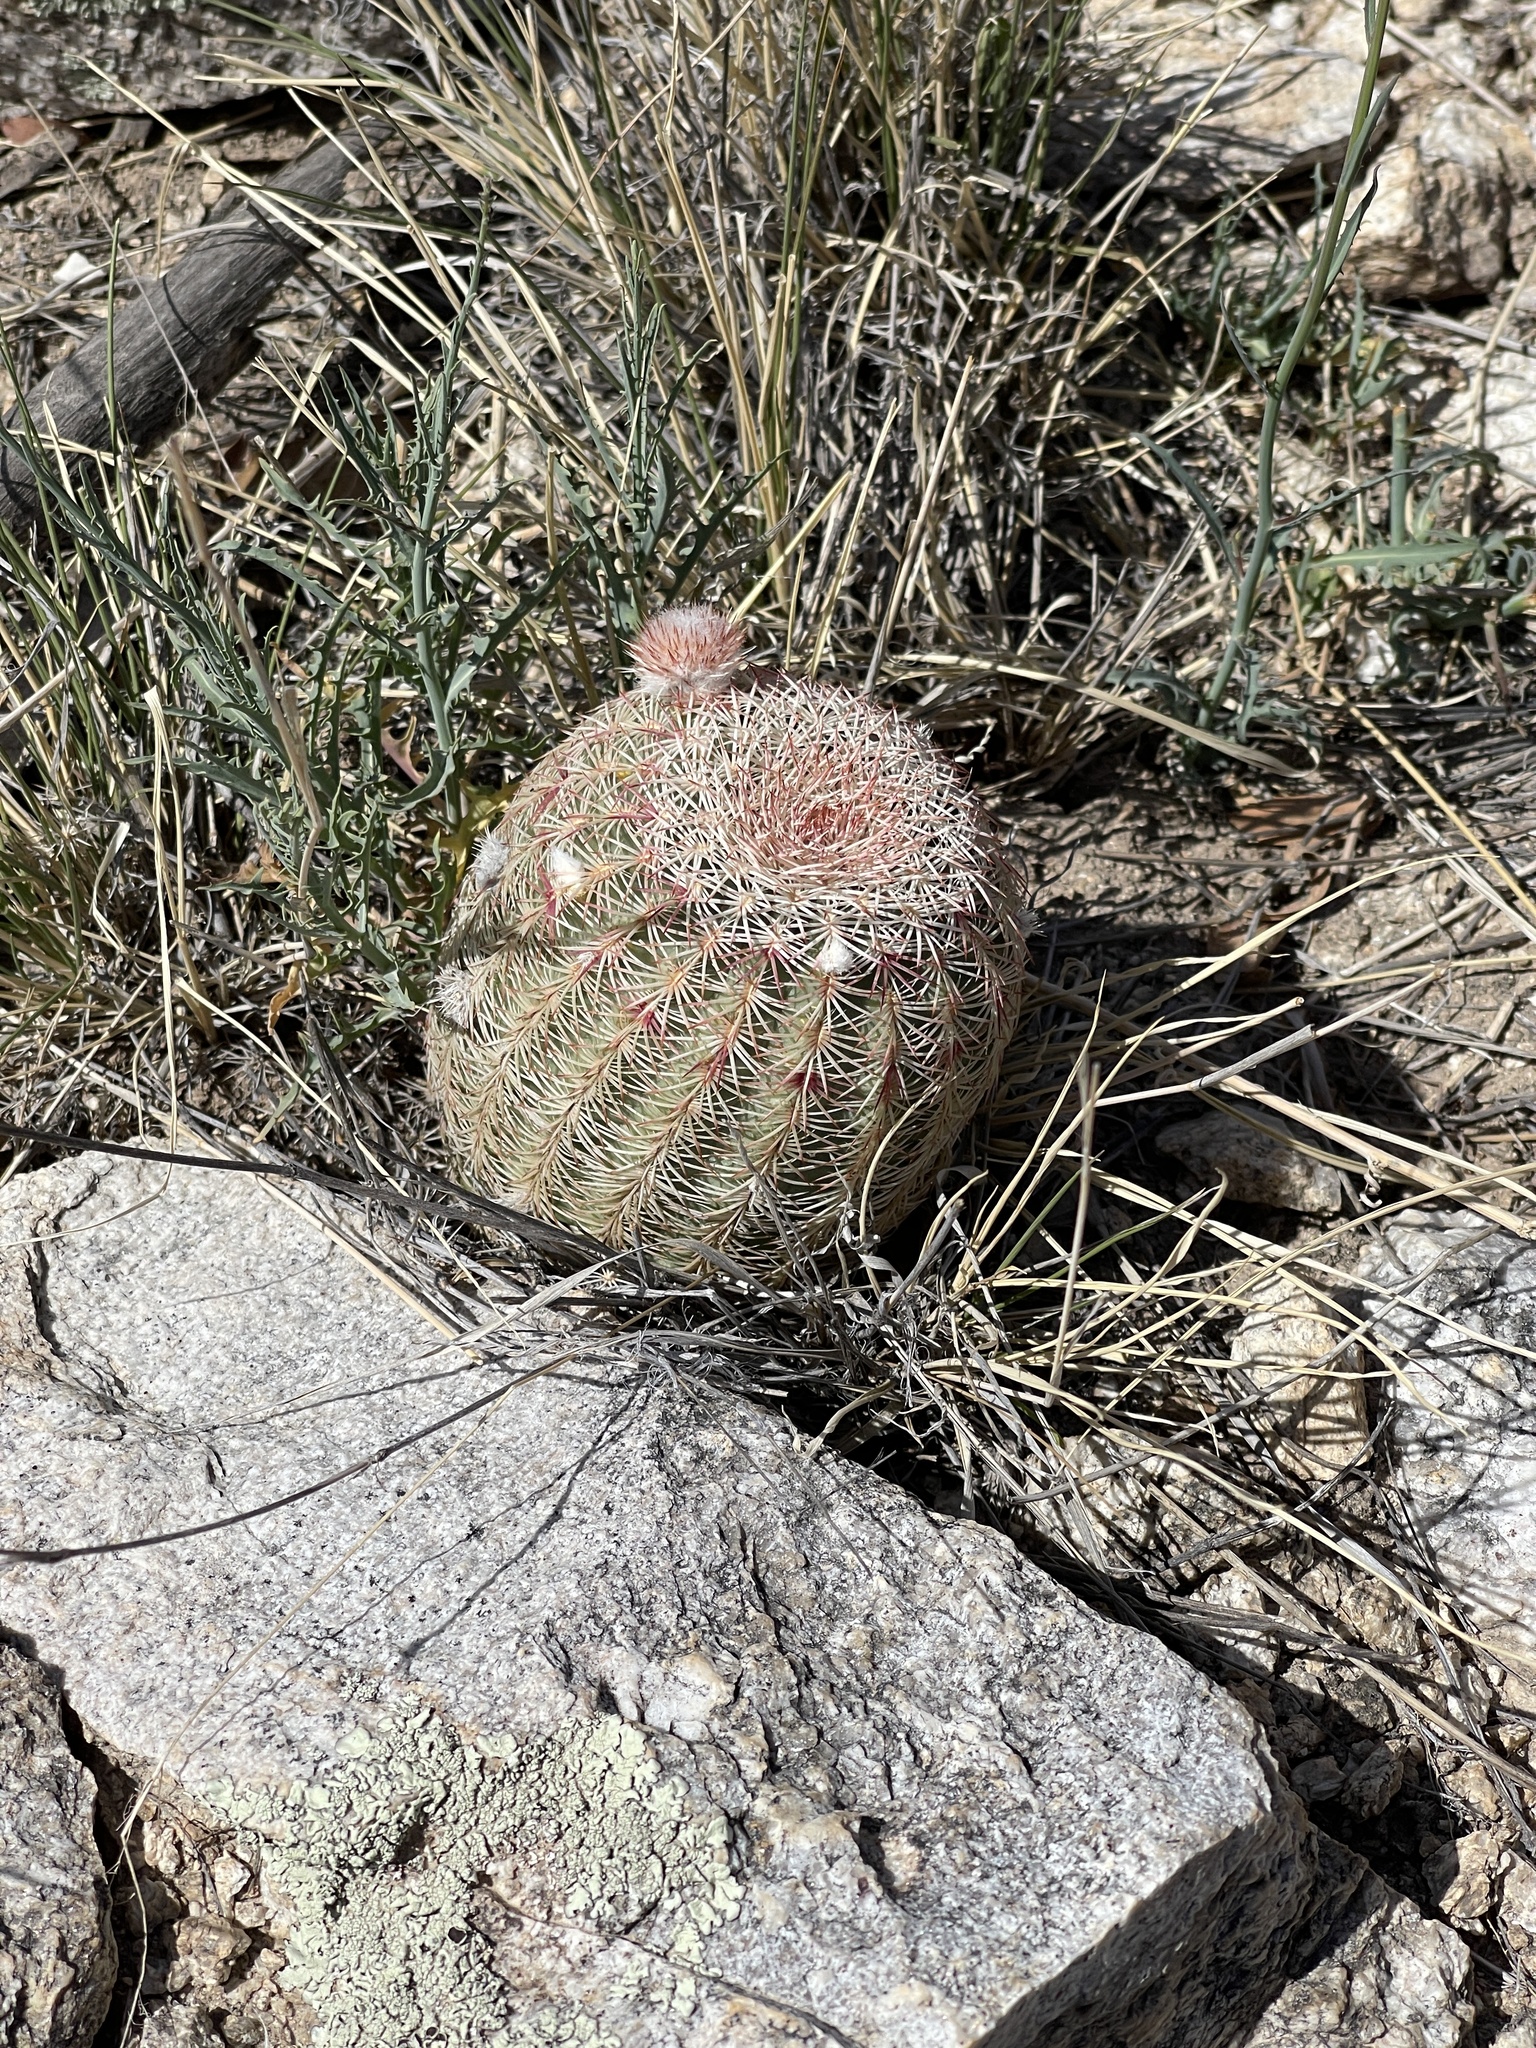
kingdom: Plantae
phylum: Tracheophyta
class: Magnoliopsida
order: Caryophyllales
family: Cactaceae
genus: Echinocereus
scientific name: Echinocereus rigidissimus
